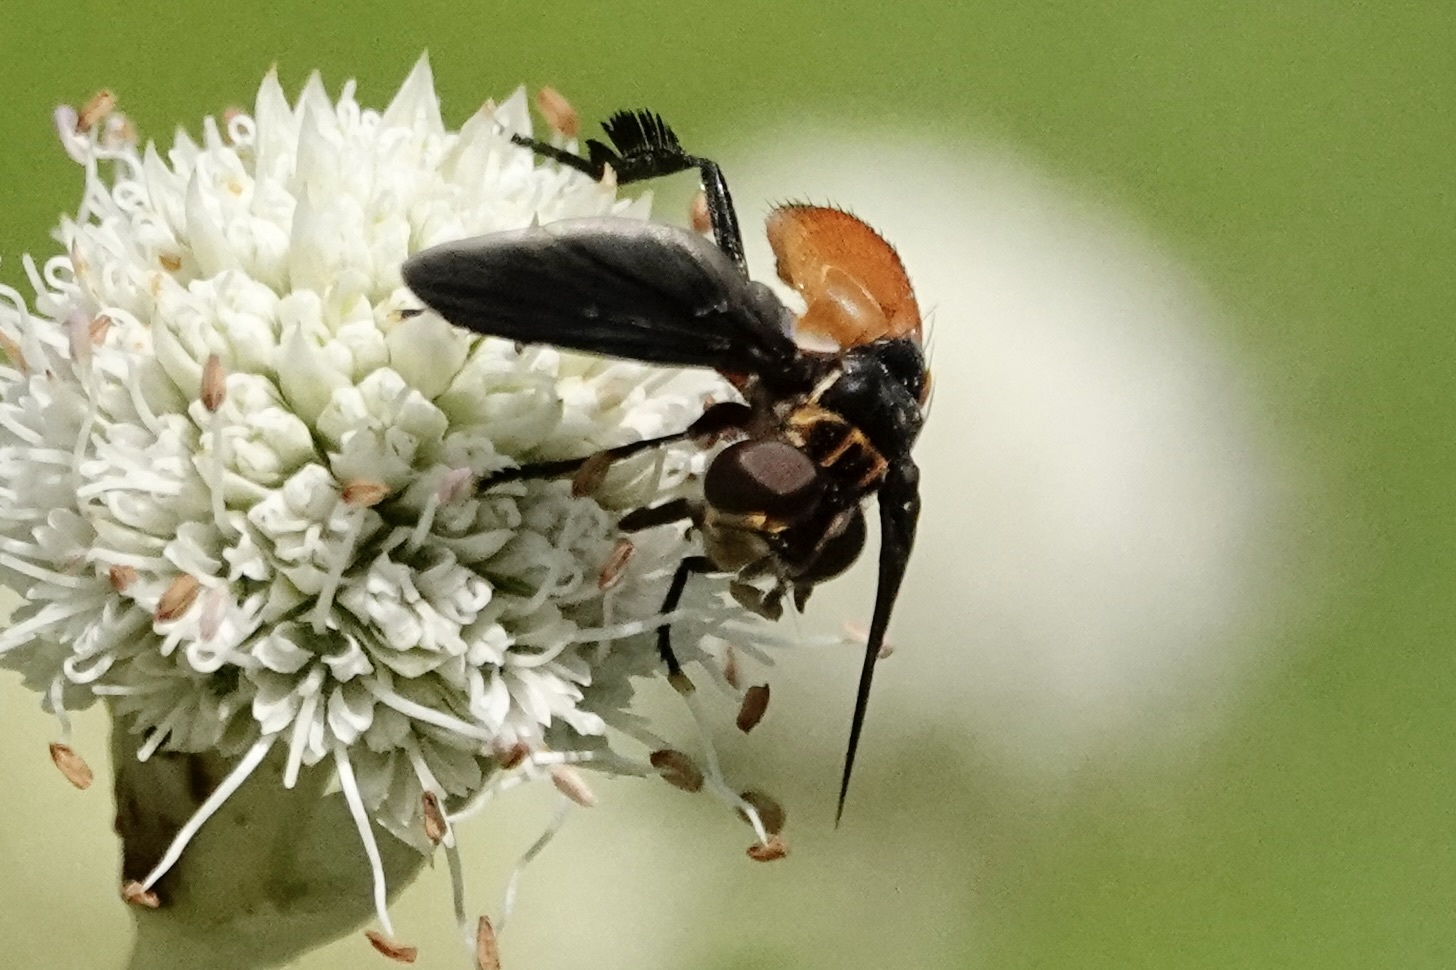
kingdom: Animalia
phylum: Arthropoda
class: Insecta
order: Diptera
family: Tachinidae
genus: Trichopoda
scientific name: Trichopoda pennipes
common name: Tachinid fly
